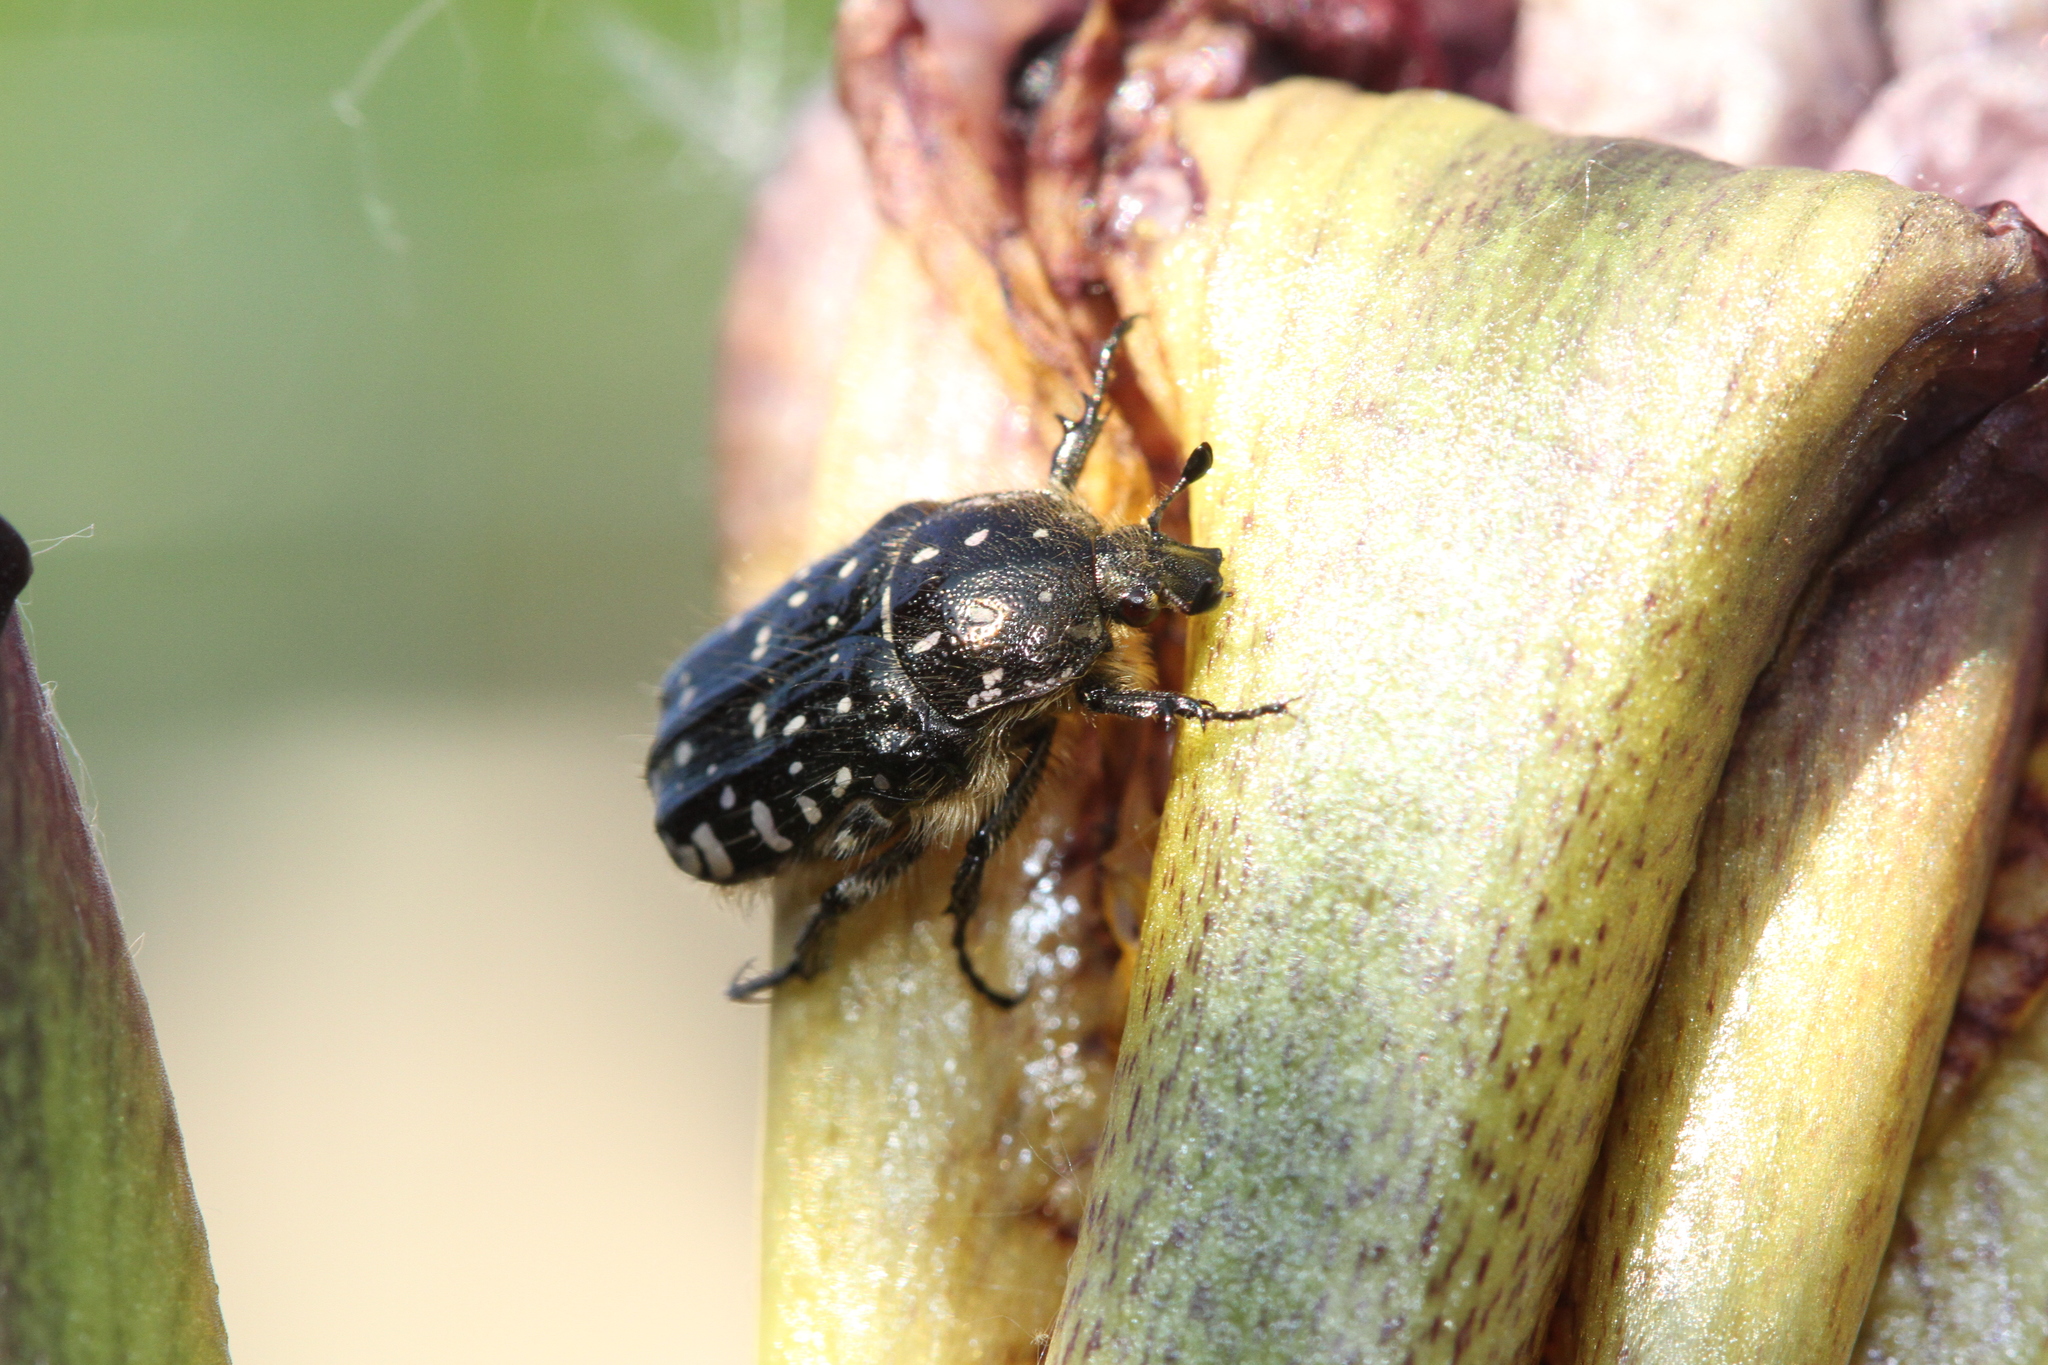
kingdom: Animalia
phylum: Arthropoda
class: Insecta
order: Coleoptera
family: Scarabaeidae
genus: Oxythyrea
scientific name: Oxythyrea funesta
